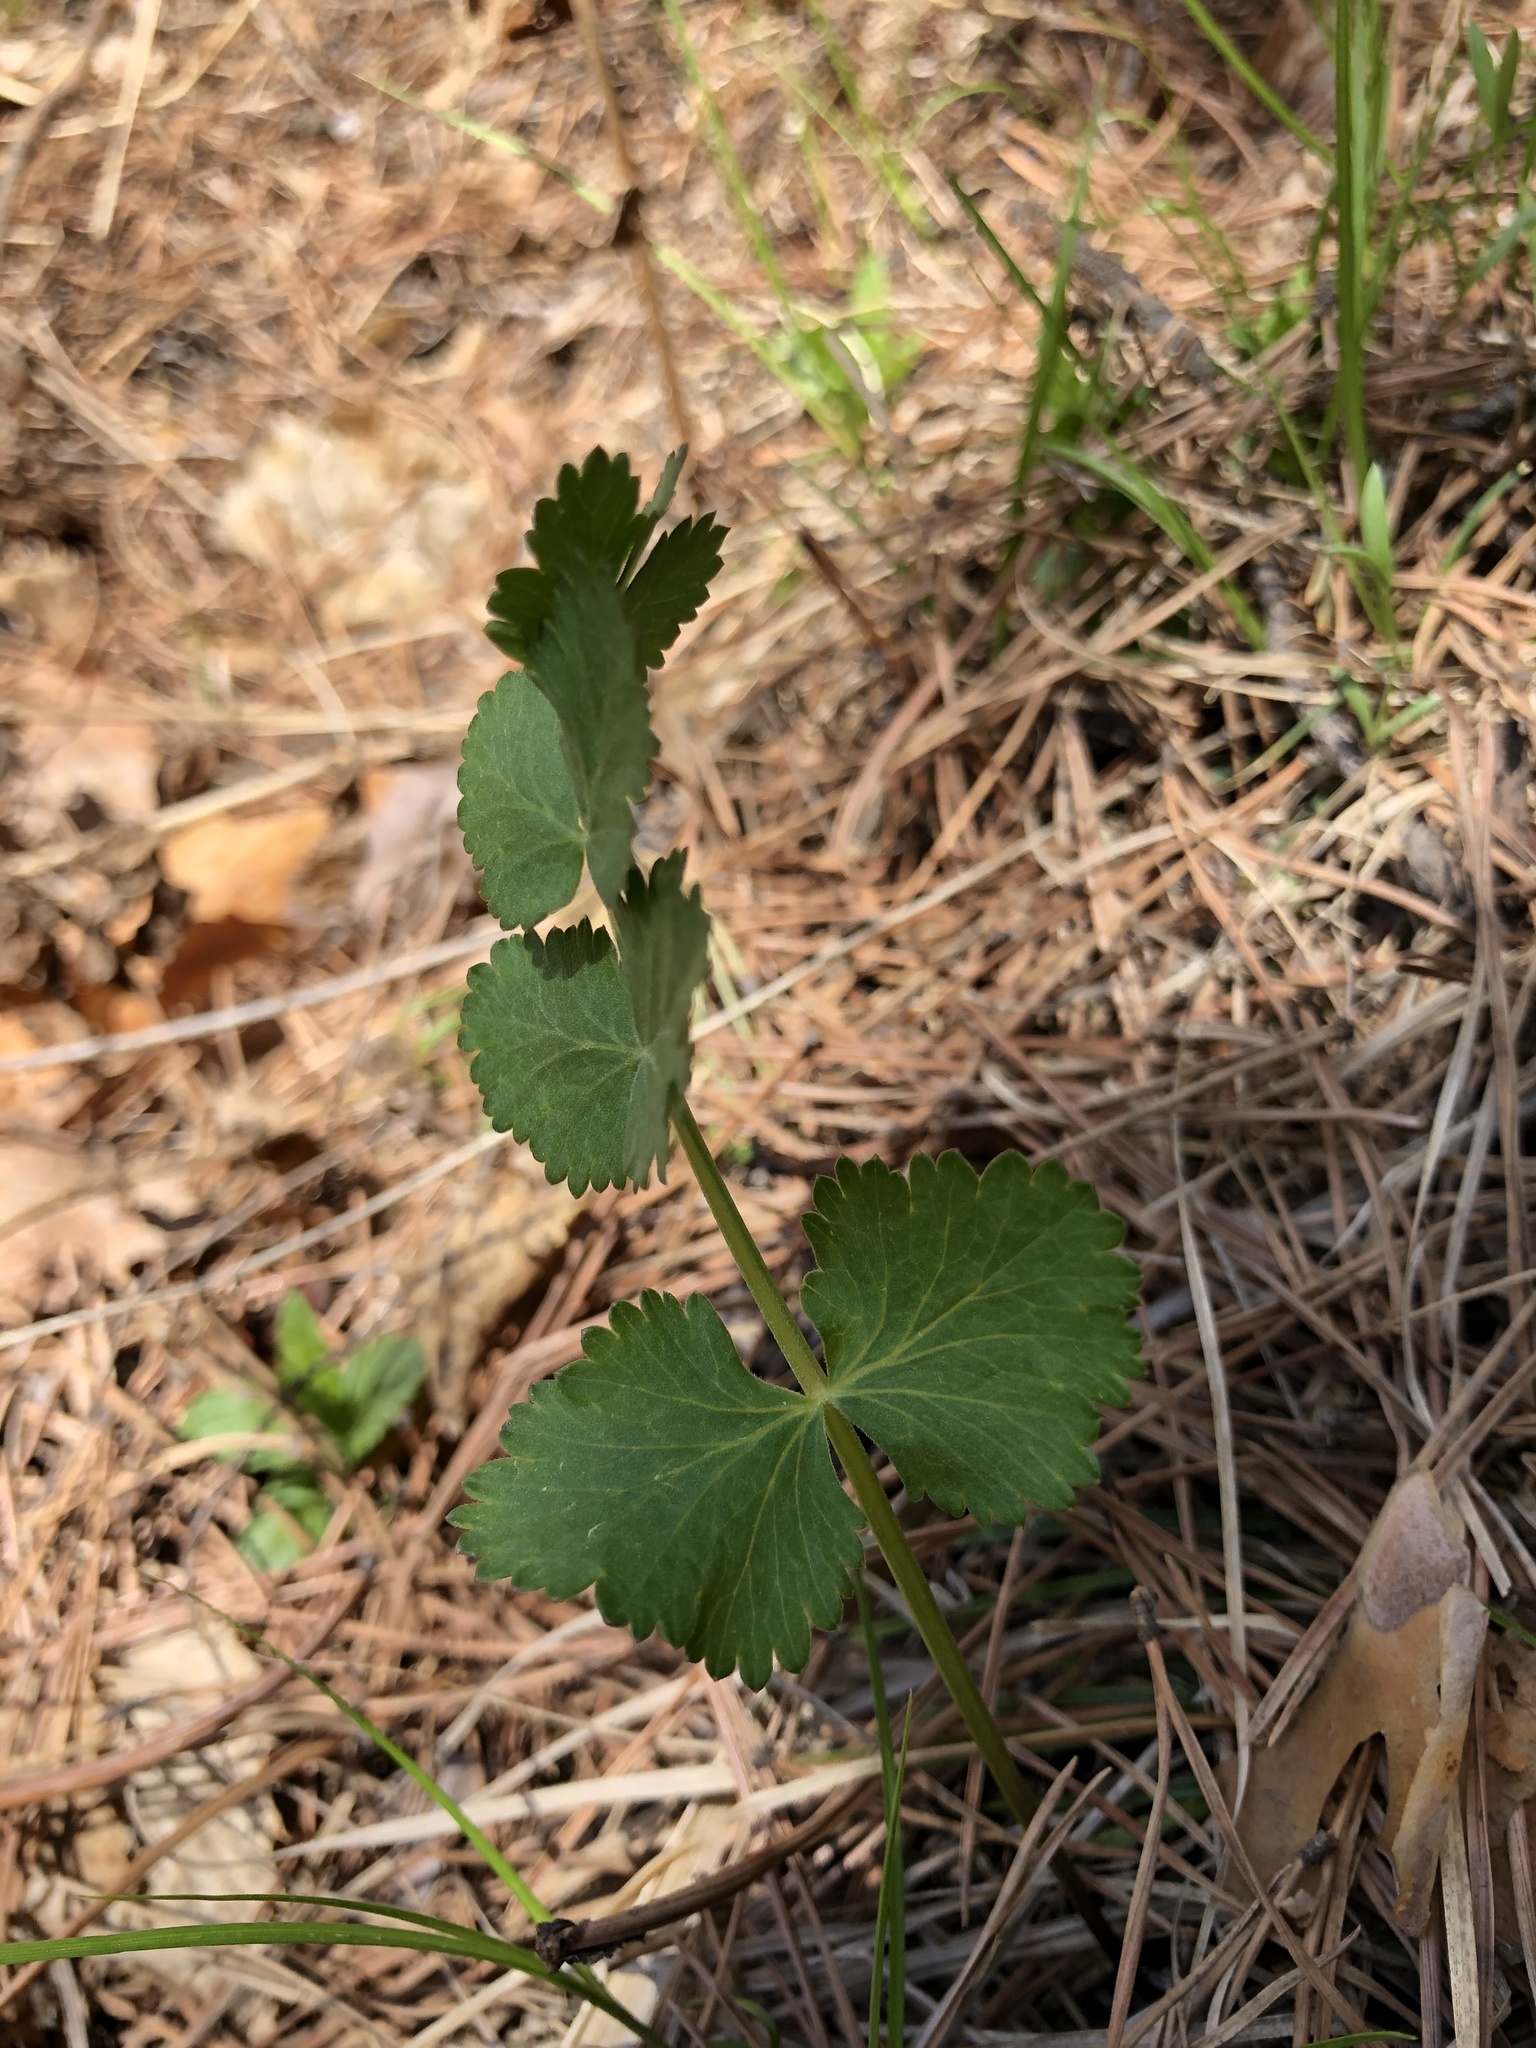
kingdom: Plantae
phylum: Tracheophyta
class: Magnoliopsida
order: Apiales
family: Apiaceae
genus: Pimpinella
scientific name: Pimpinella saxifraga
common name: Burnet-saxifrage
